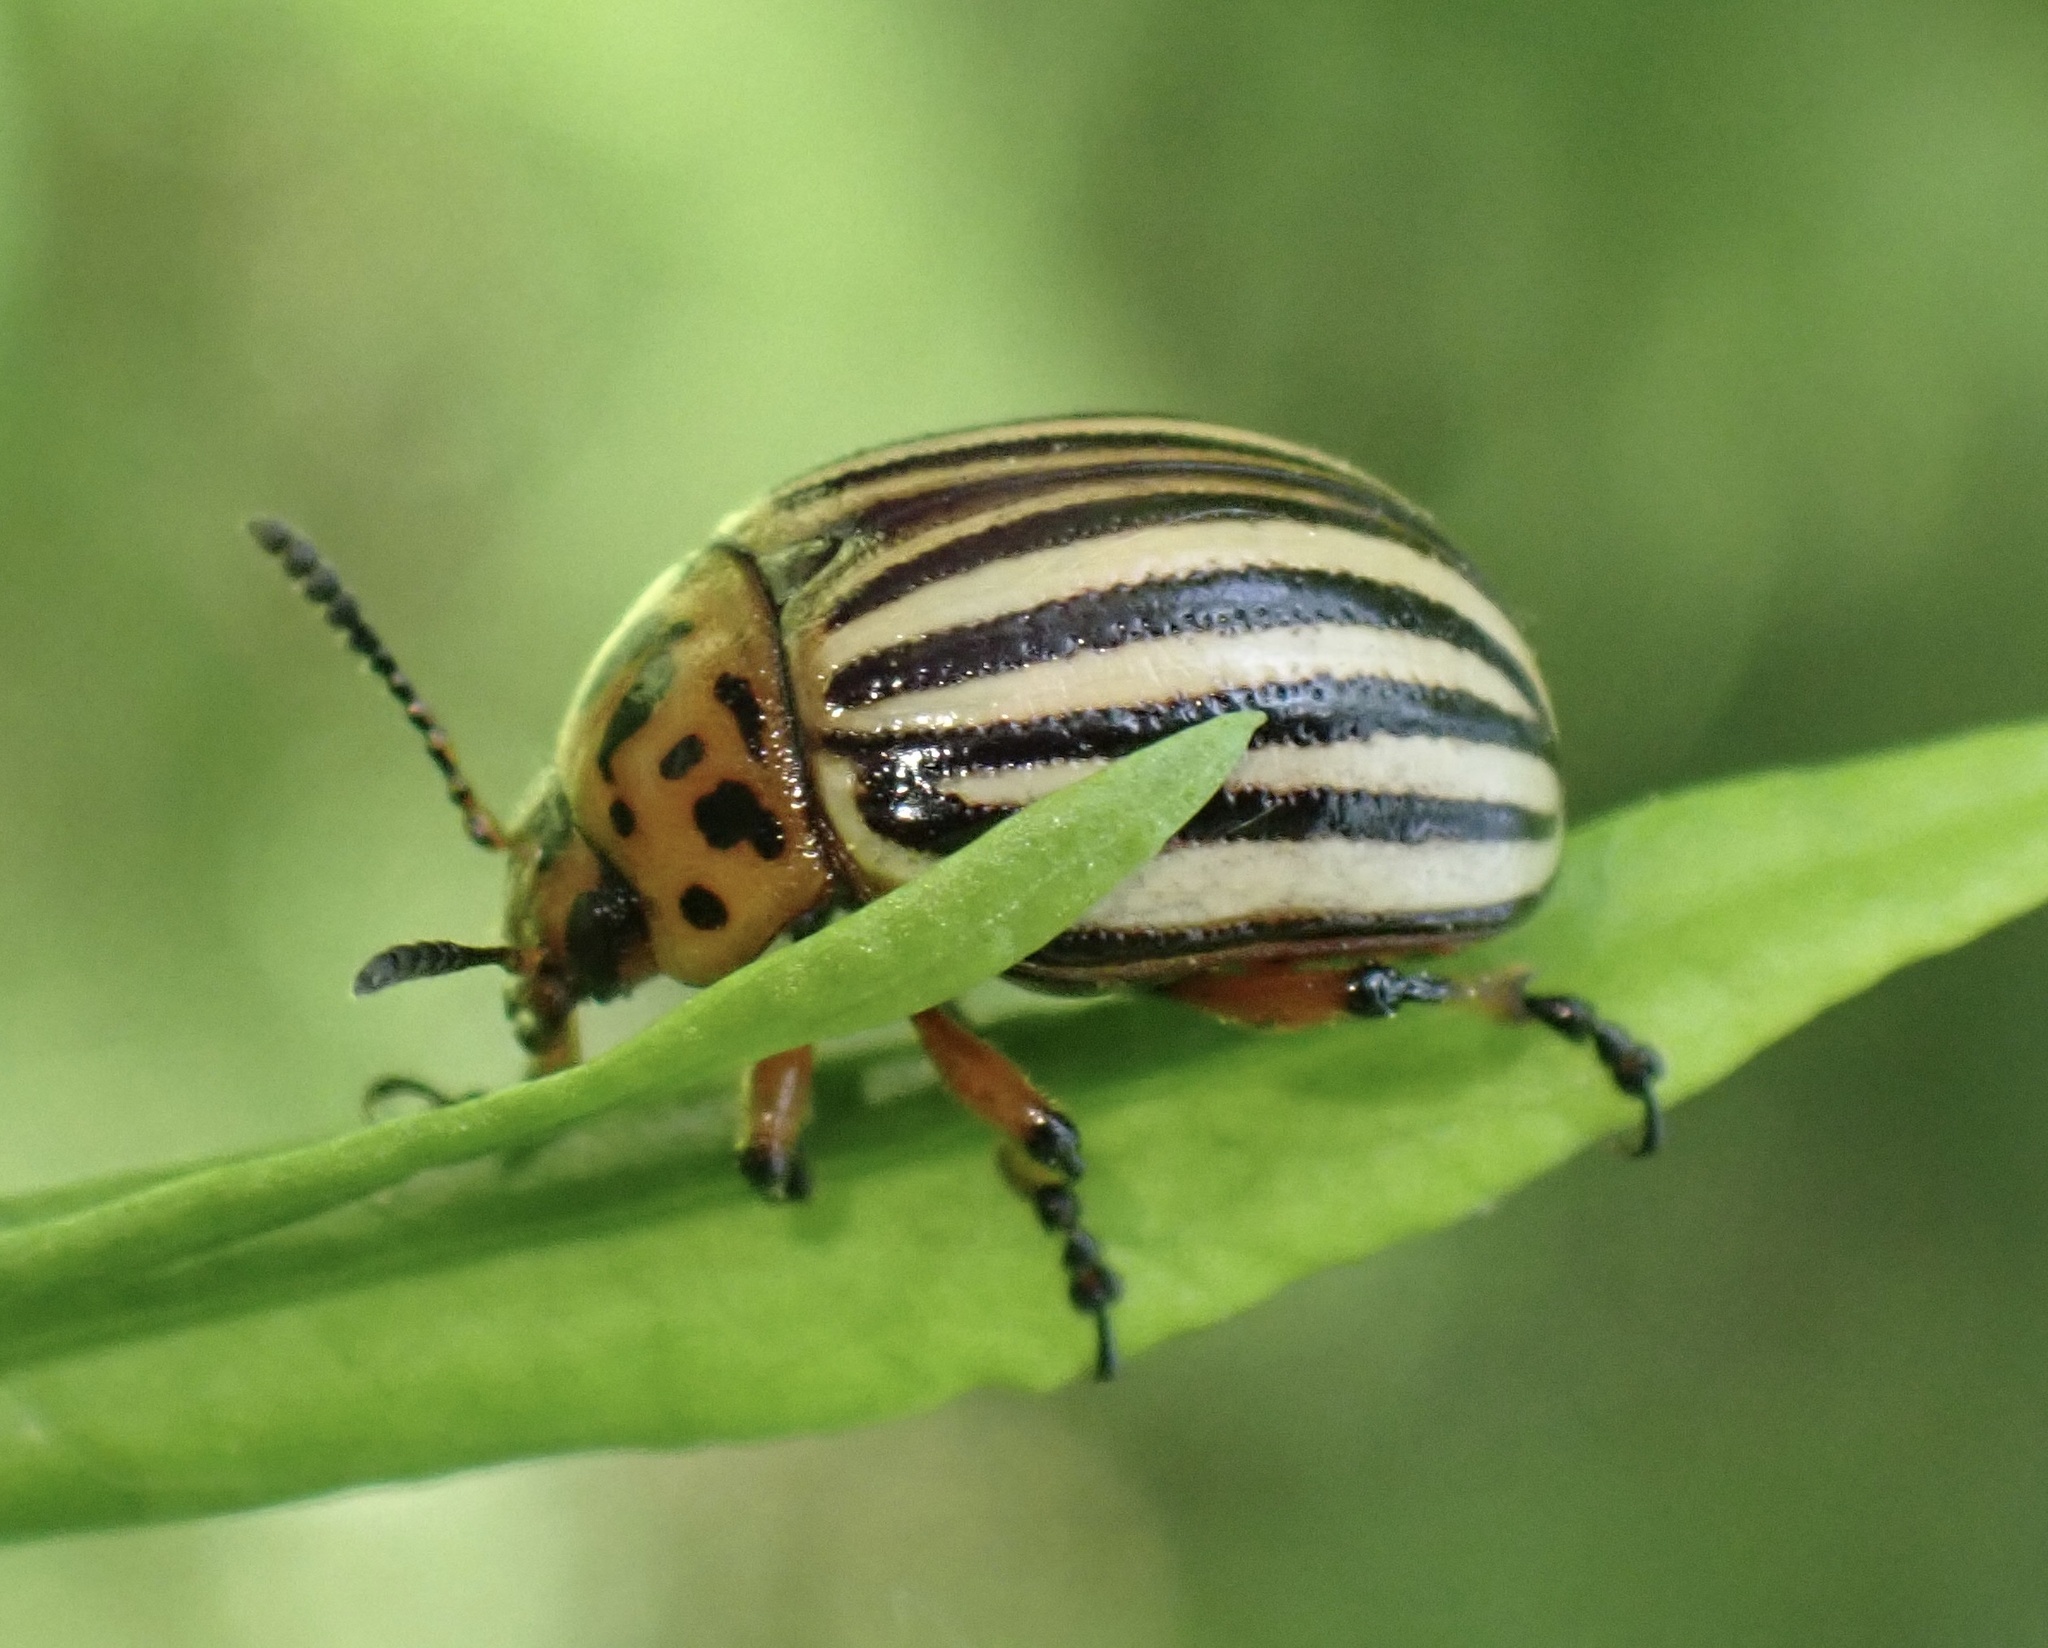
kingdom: Animalia
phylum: Arthropoda
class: Insecta
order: Coleoptera
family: Chrysomelidae
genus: Leptinotarsa
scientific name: Leptinotarsa decemlineata
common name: Colorado potato beetle
